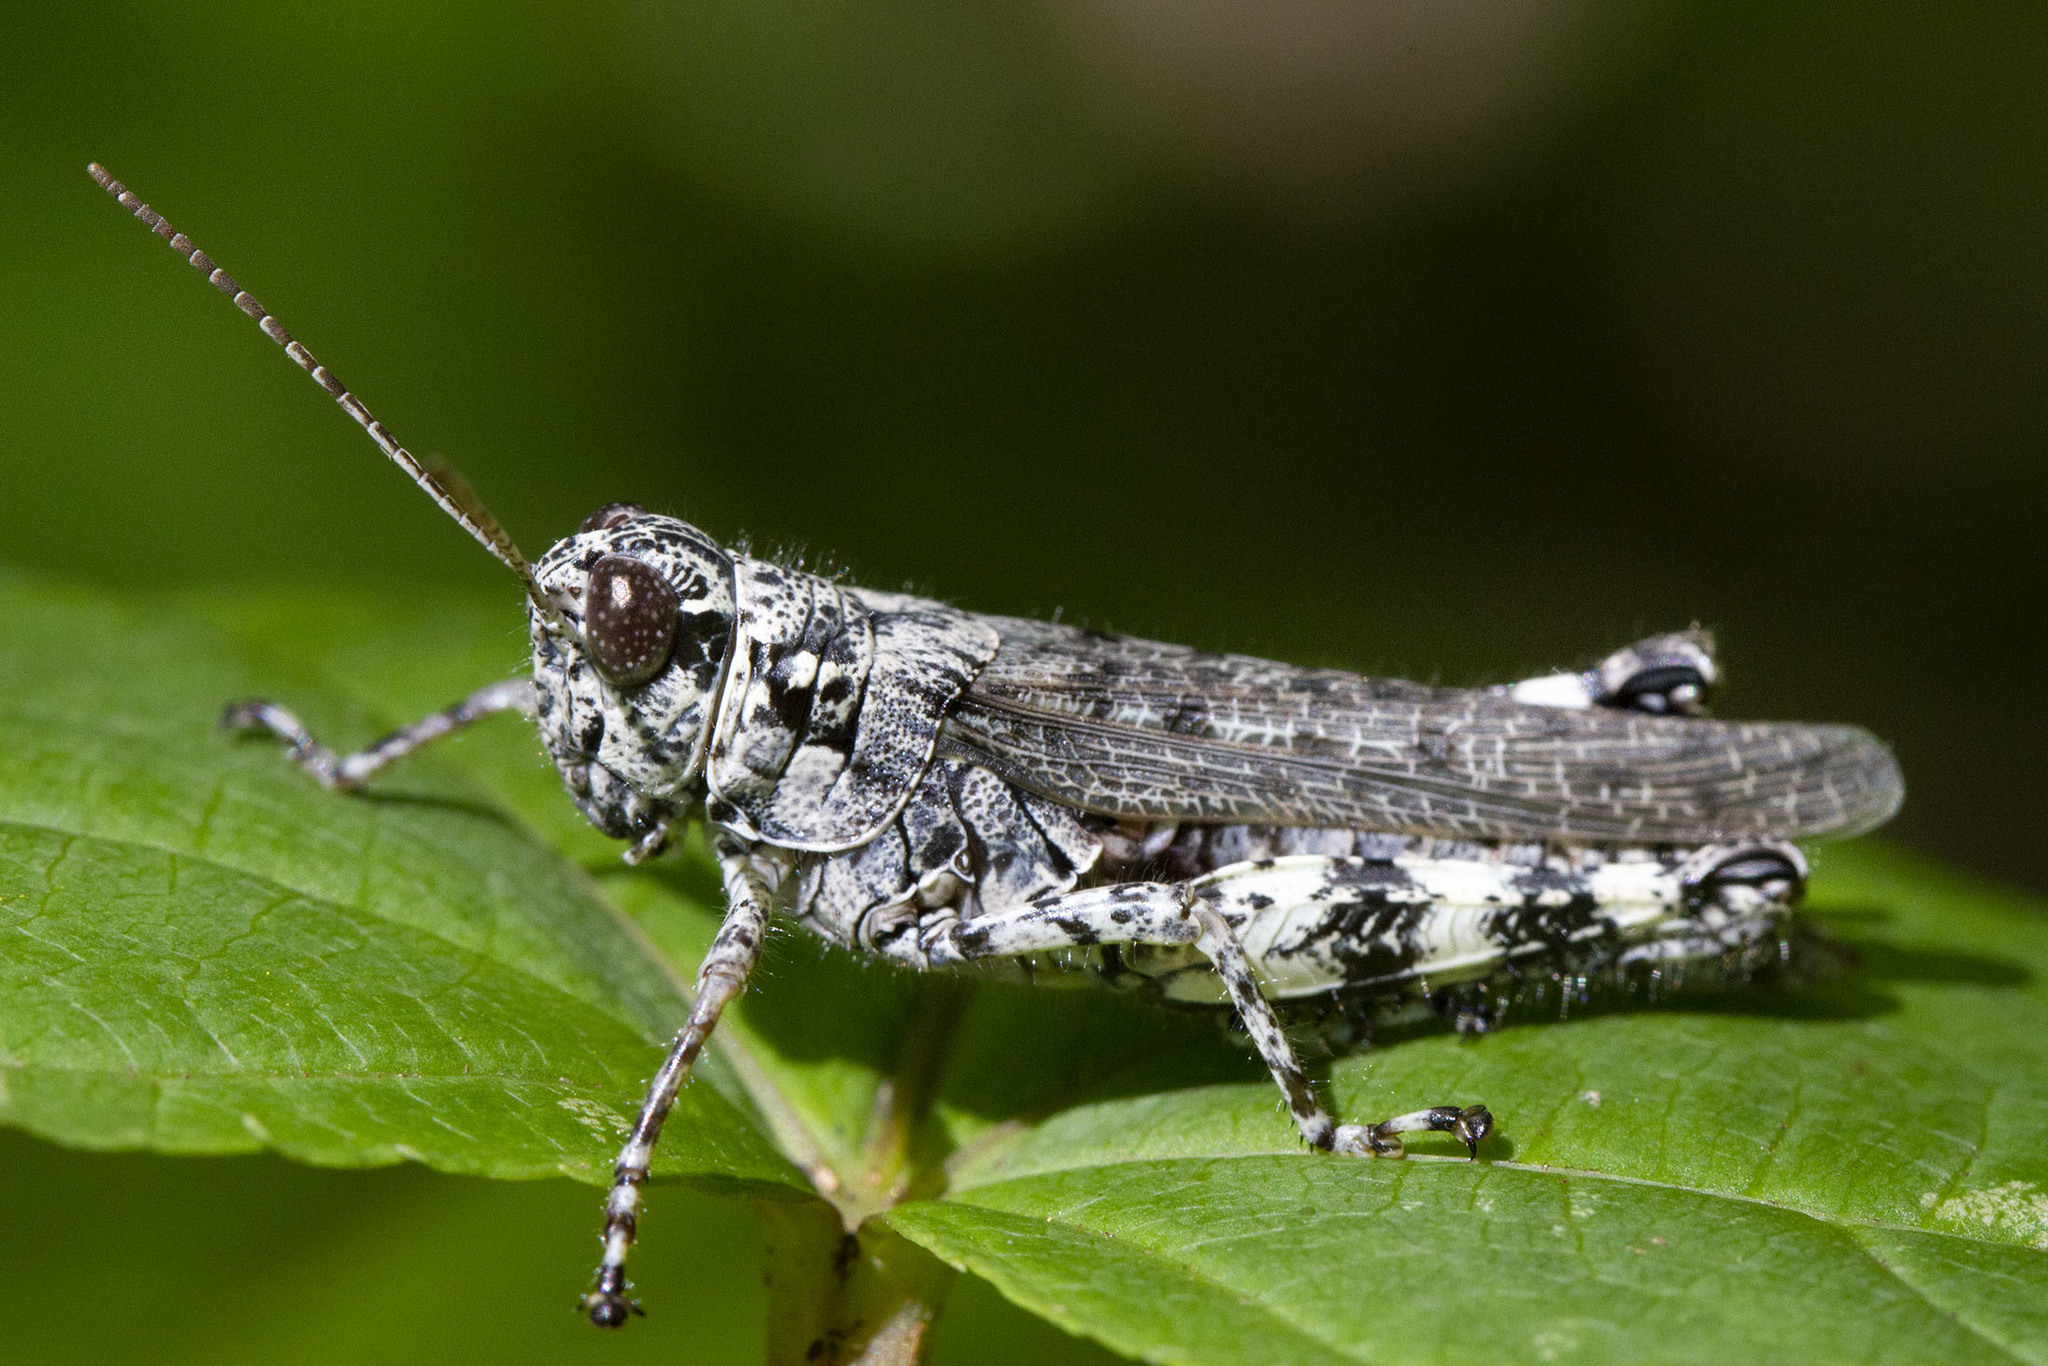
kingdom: Animalia
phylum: Arthropoda
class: Insecta
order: Orthoptera
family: Acrididae
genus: Melanoplus
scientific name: Melanoplus punctulatus
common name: Pine-tree spur-throat grasshopper
